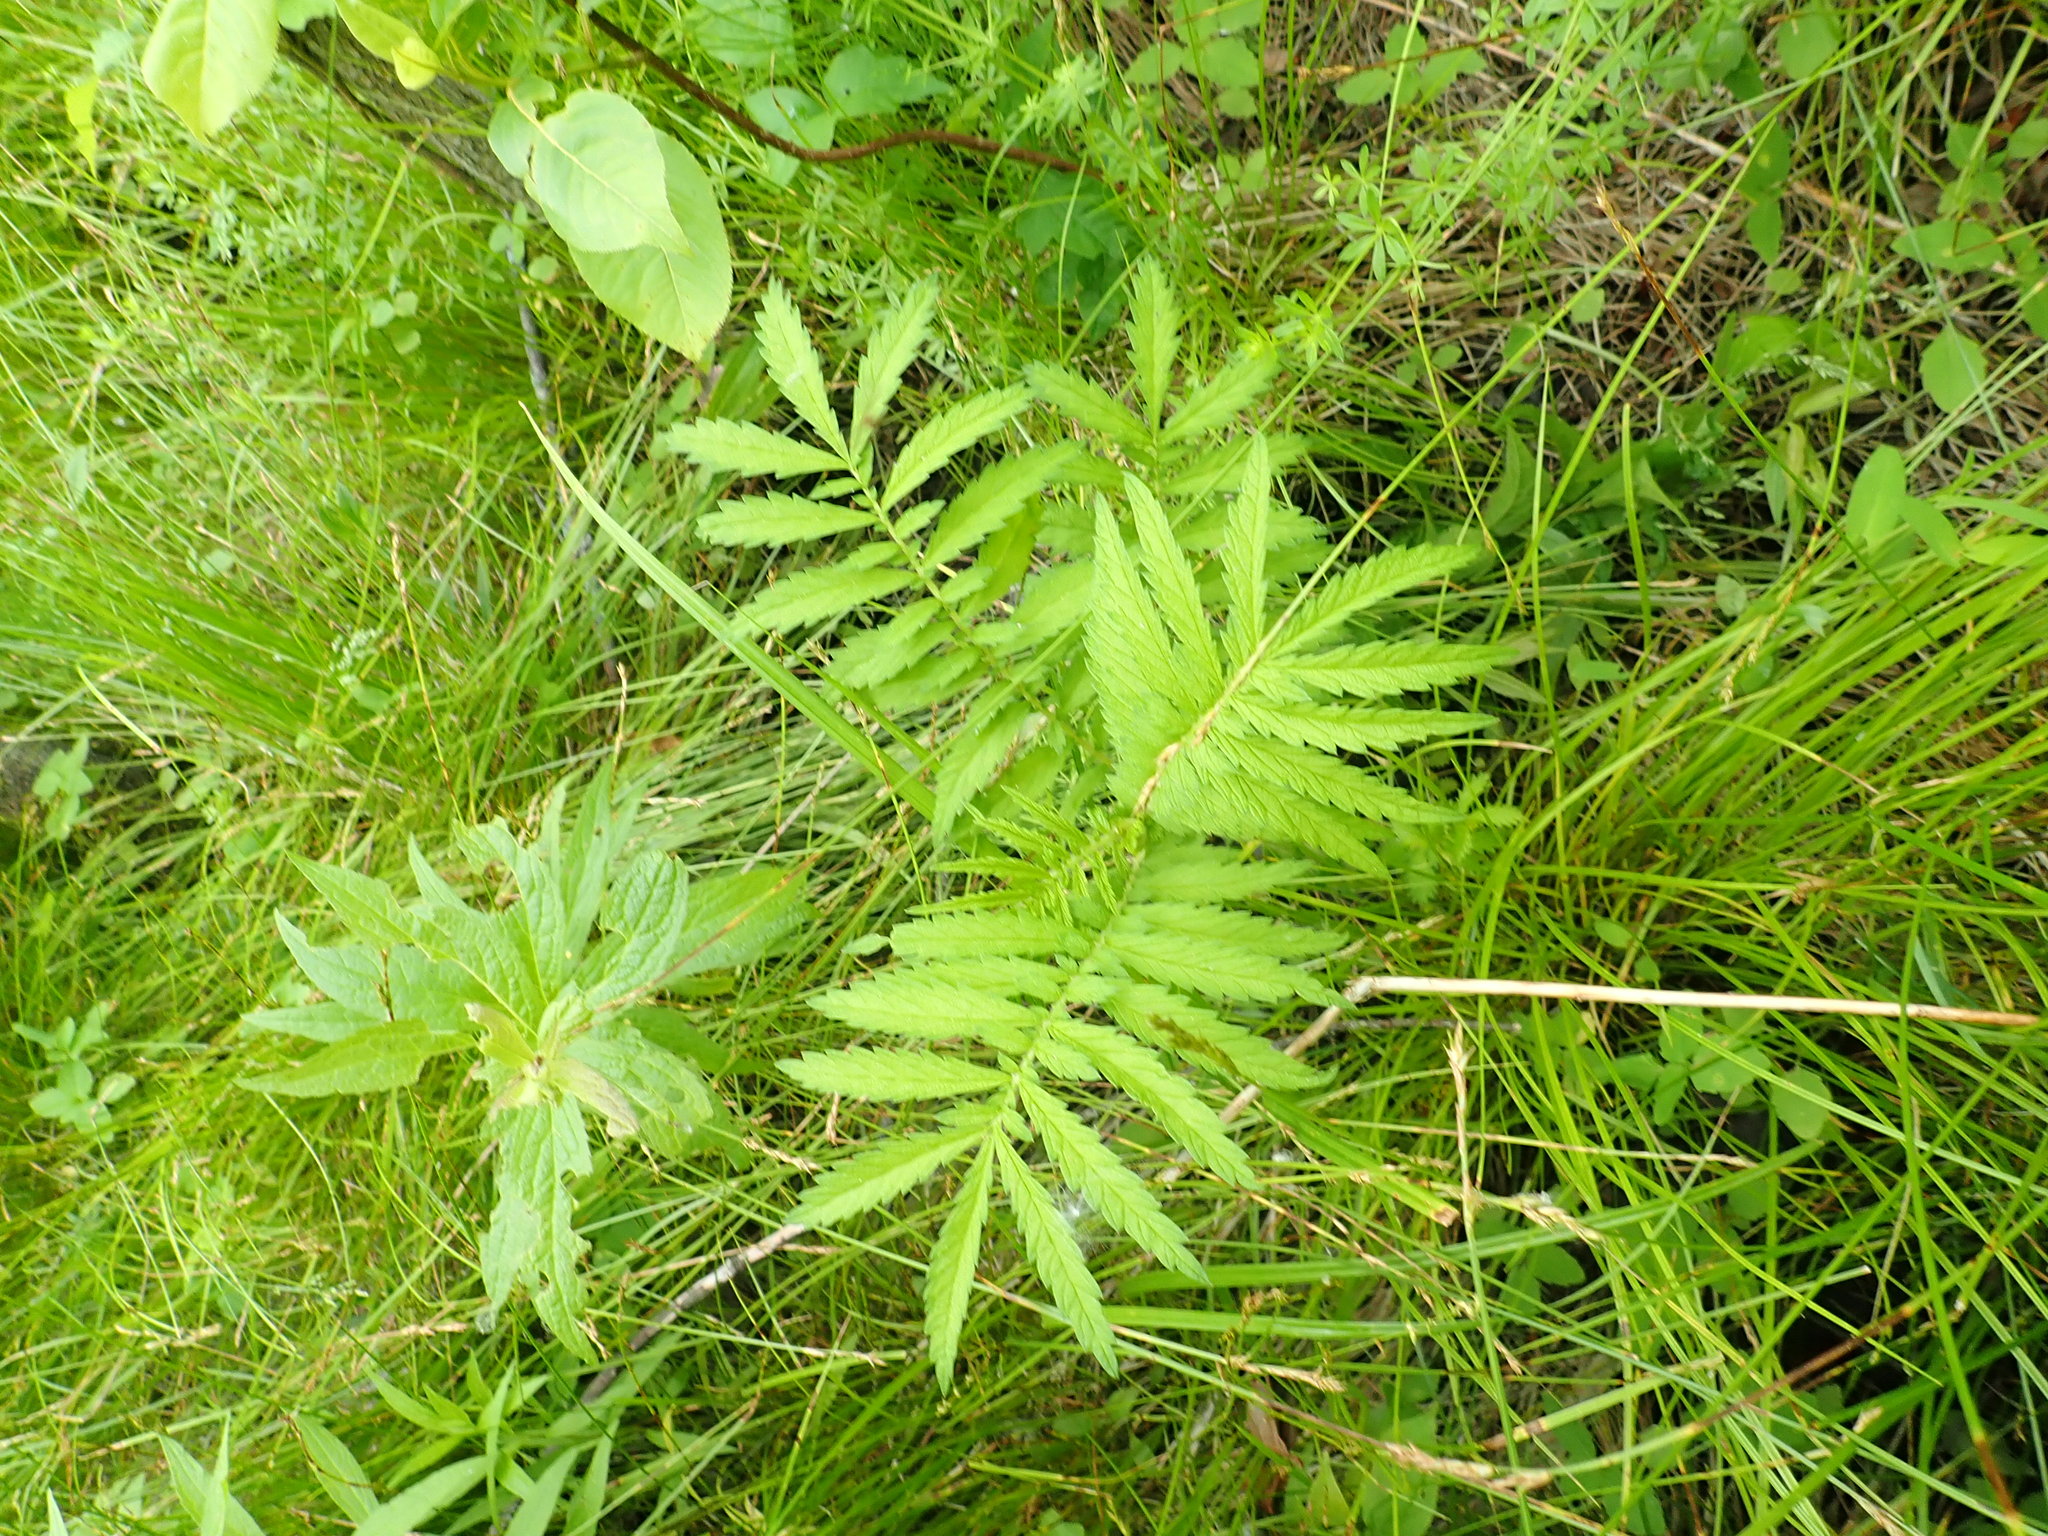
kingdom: Plantae
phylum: Tracheophyta
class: Magnoliopsida
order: Rosales
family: Rosaceae
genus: Agrimonia
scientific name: Agrimonia parviflora
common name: Harvest-lice
